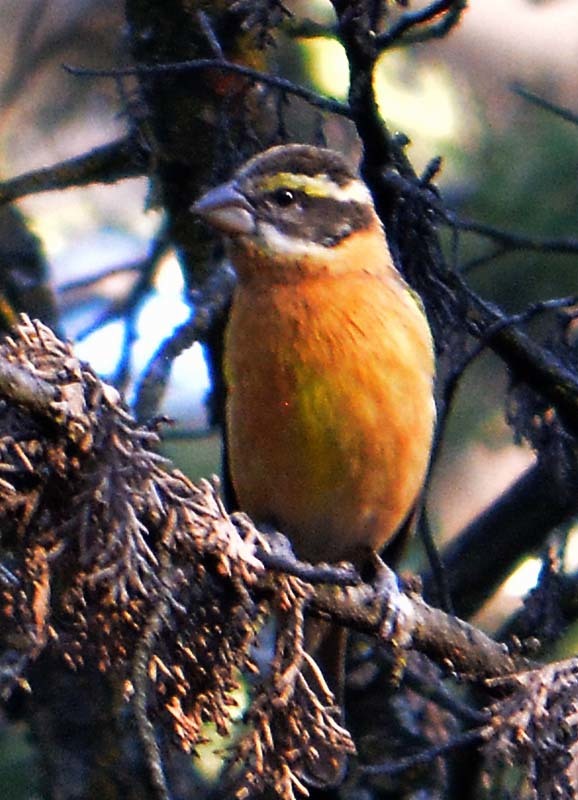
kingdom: Animalia
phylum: Chordata
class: Aves
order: Passeriformes
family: Cardinalidae
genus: Pheucticus
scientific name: Pheucticus melanocephalus
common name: Black-headed grosbeak
